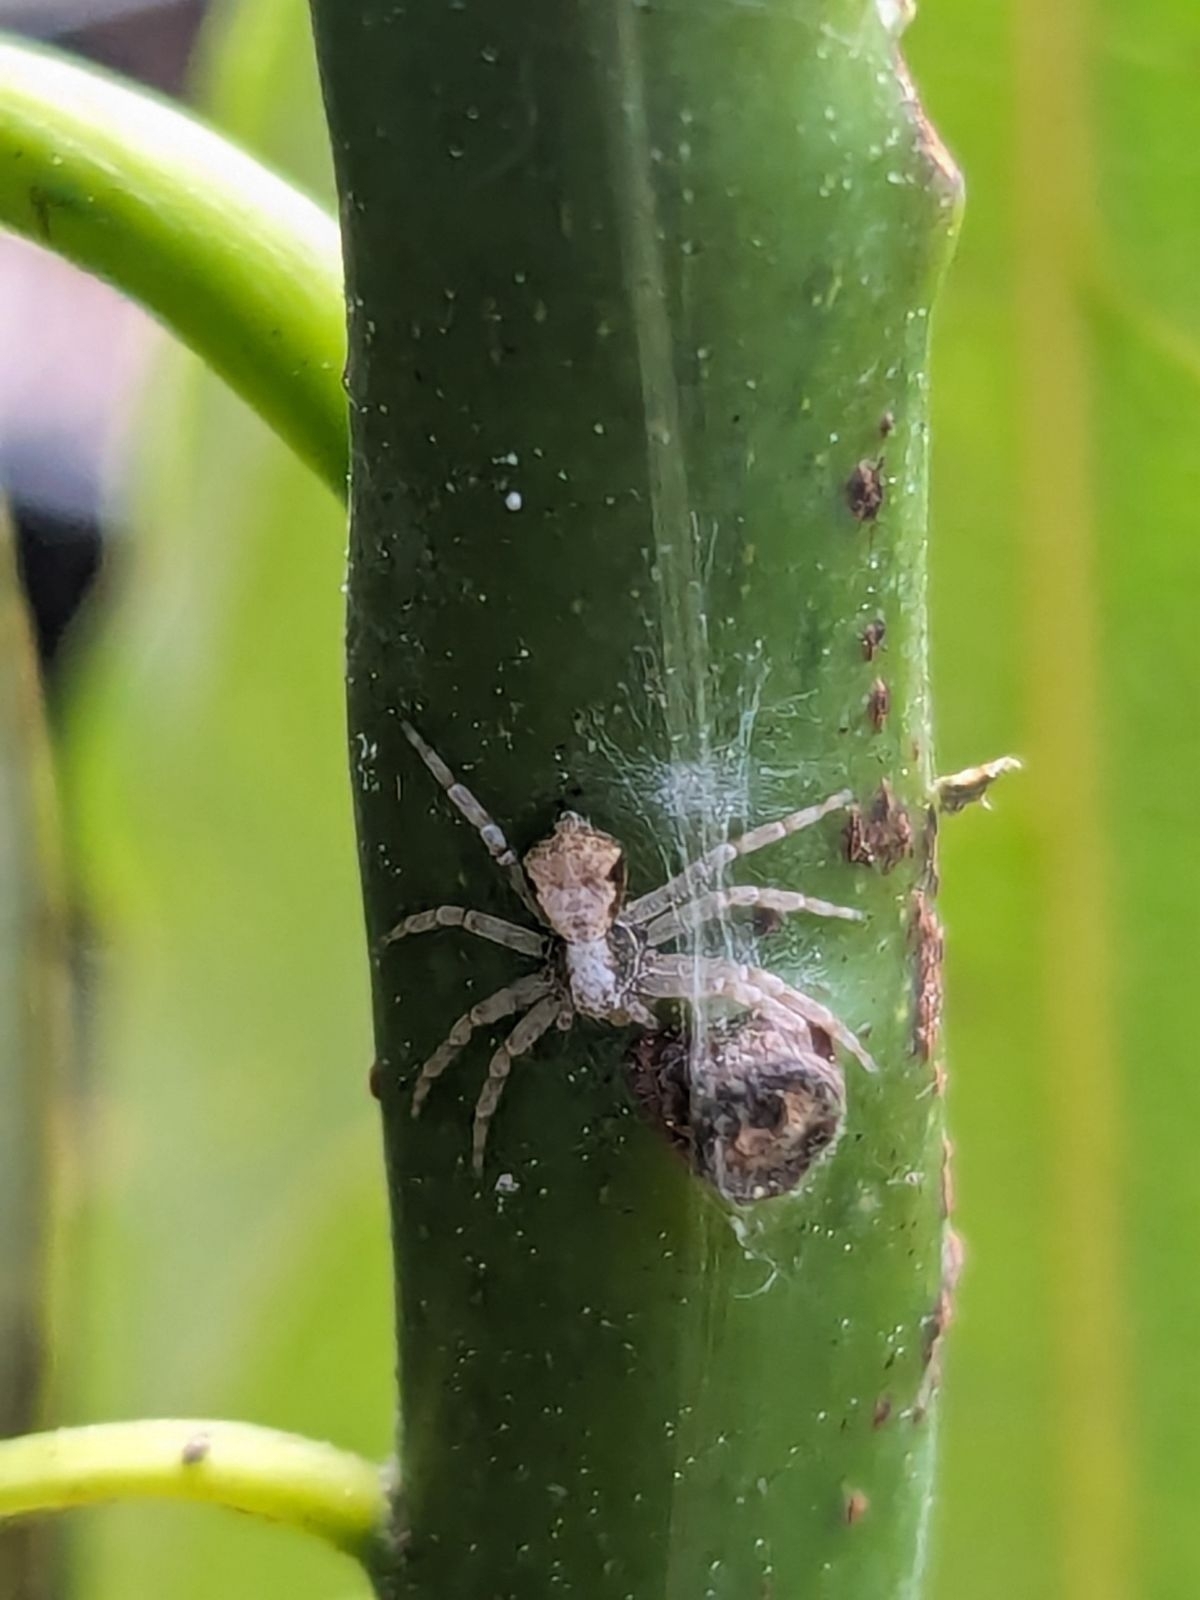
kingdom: Animalia
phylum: Arthropoda
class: Arachnida
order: Araneae
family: Philodromidae
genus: Philodromus
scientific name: Philodromus cespitum
